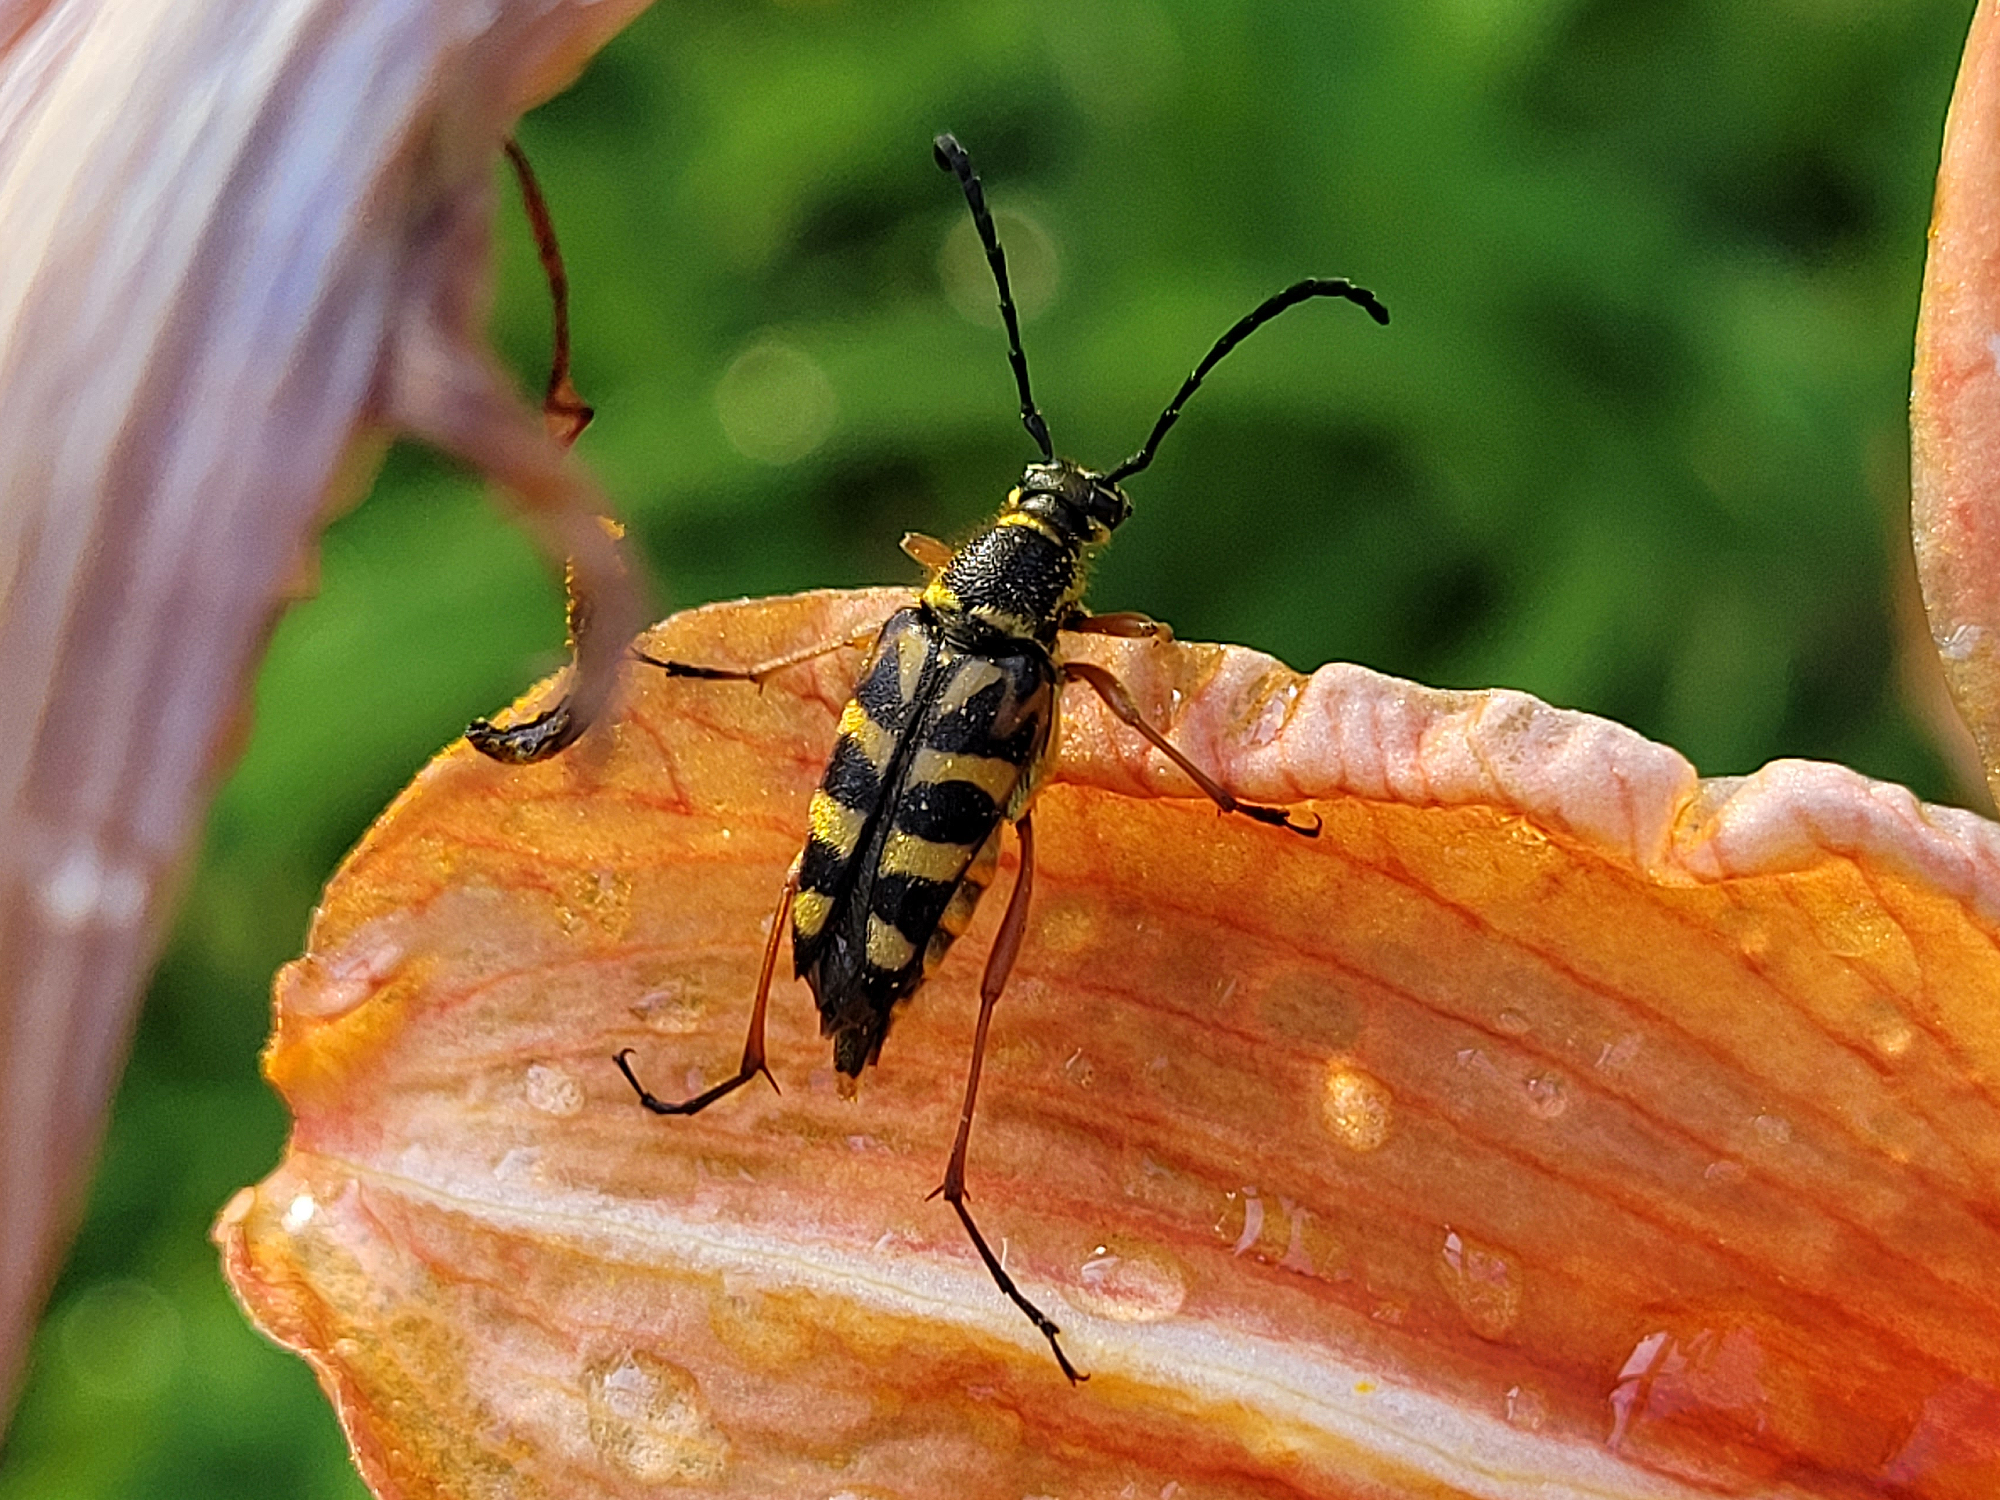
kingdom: Animalia
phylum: Arthropoda
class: Insecta
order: Coleoptera
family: Cerambycidae
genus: Typocerus
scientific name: Typocerus zebra
